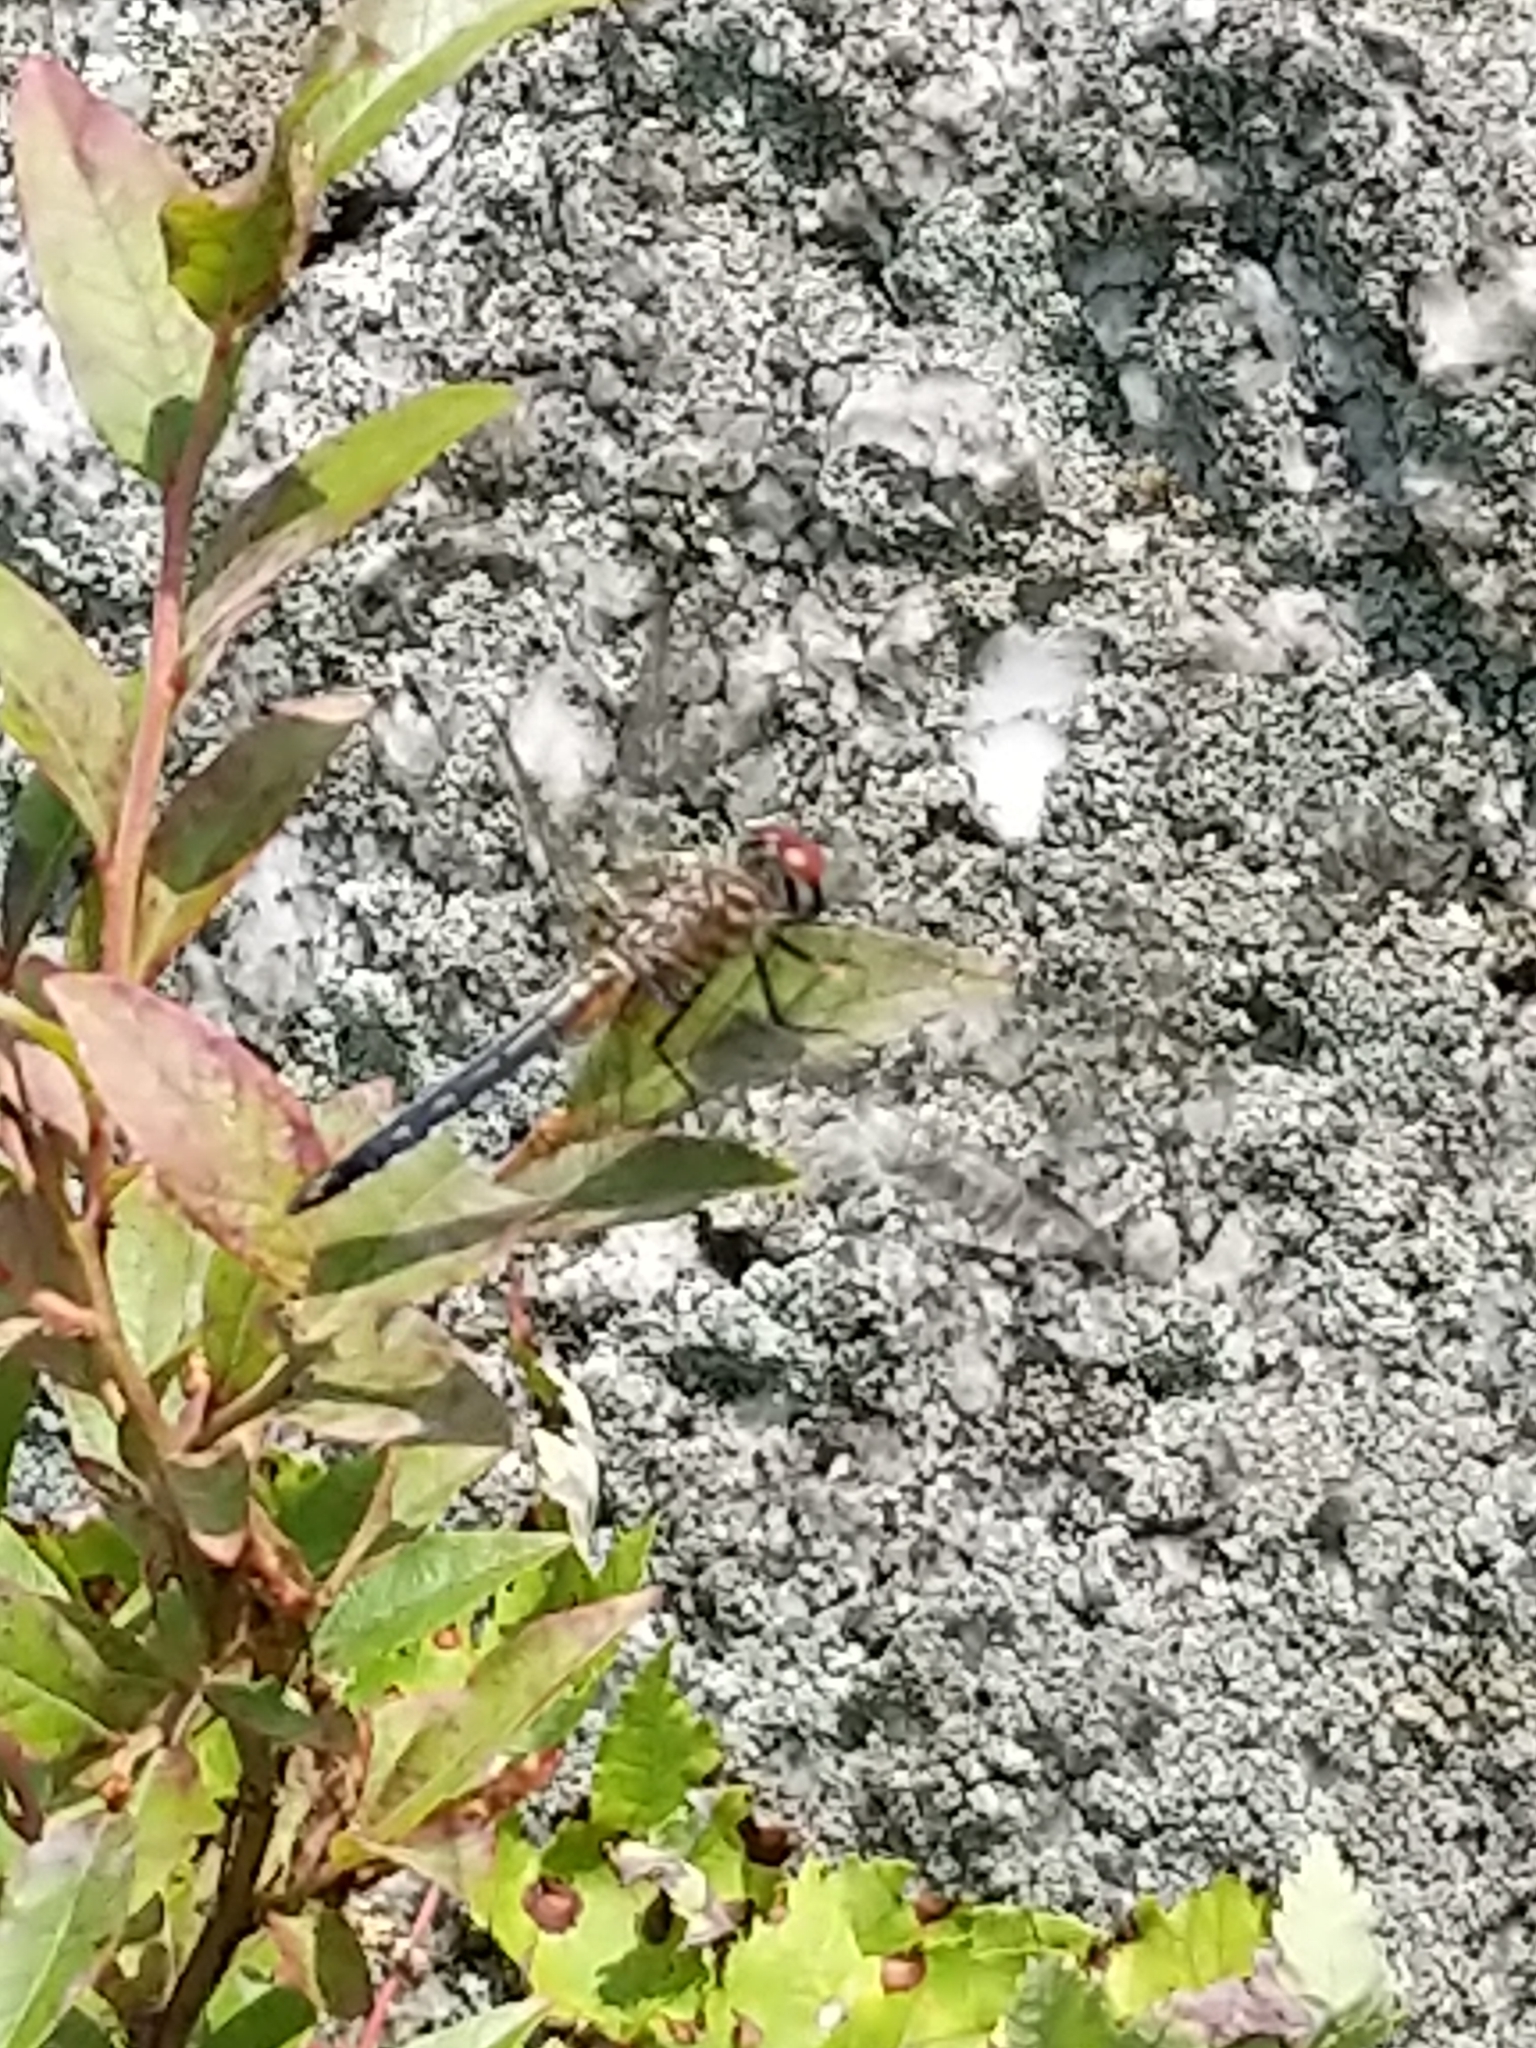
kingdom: Animalia
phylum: Arthropoda
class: Insecta
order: Odonata
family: Libellulidae
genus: Pachydiplax
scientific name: Pachydiplax longipennis
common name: Blue dasher
